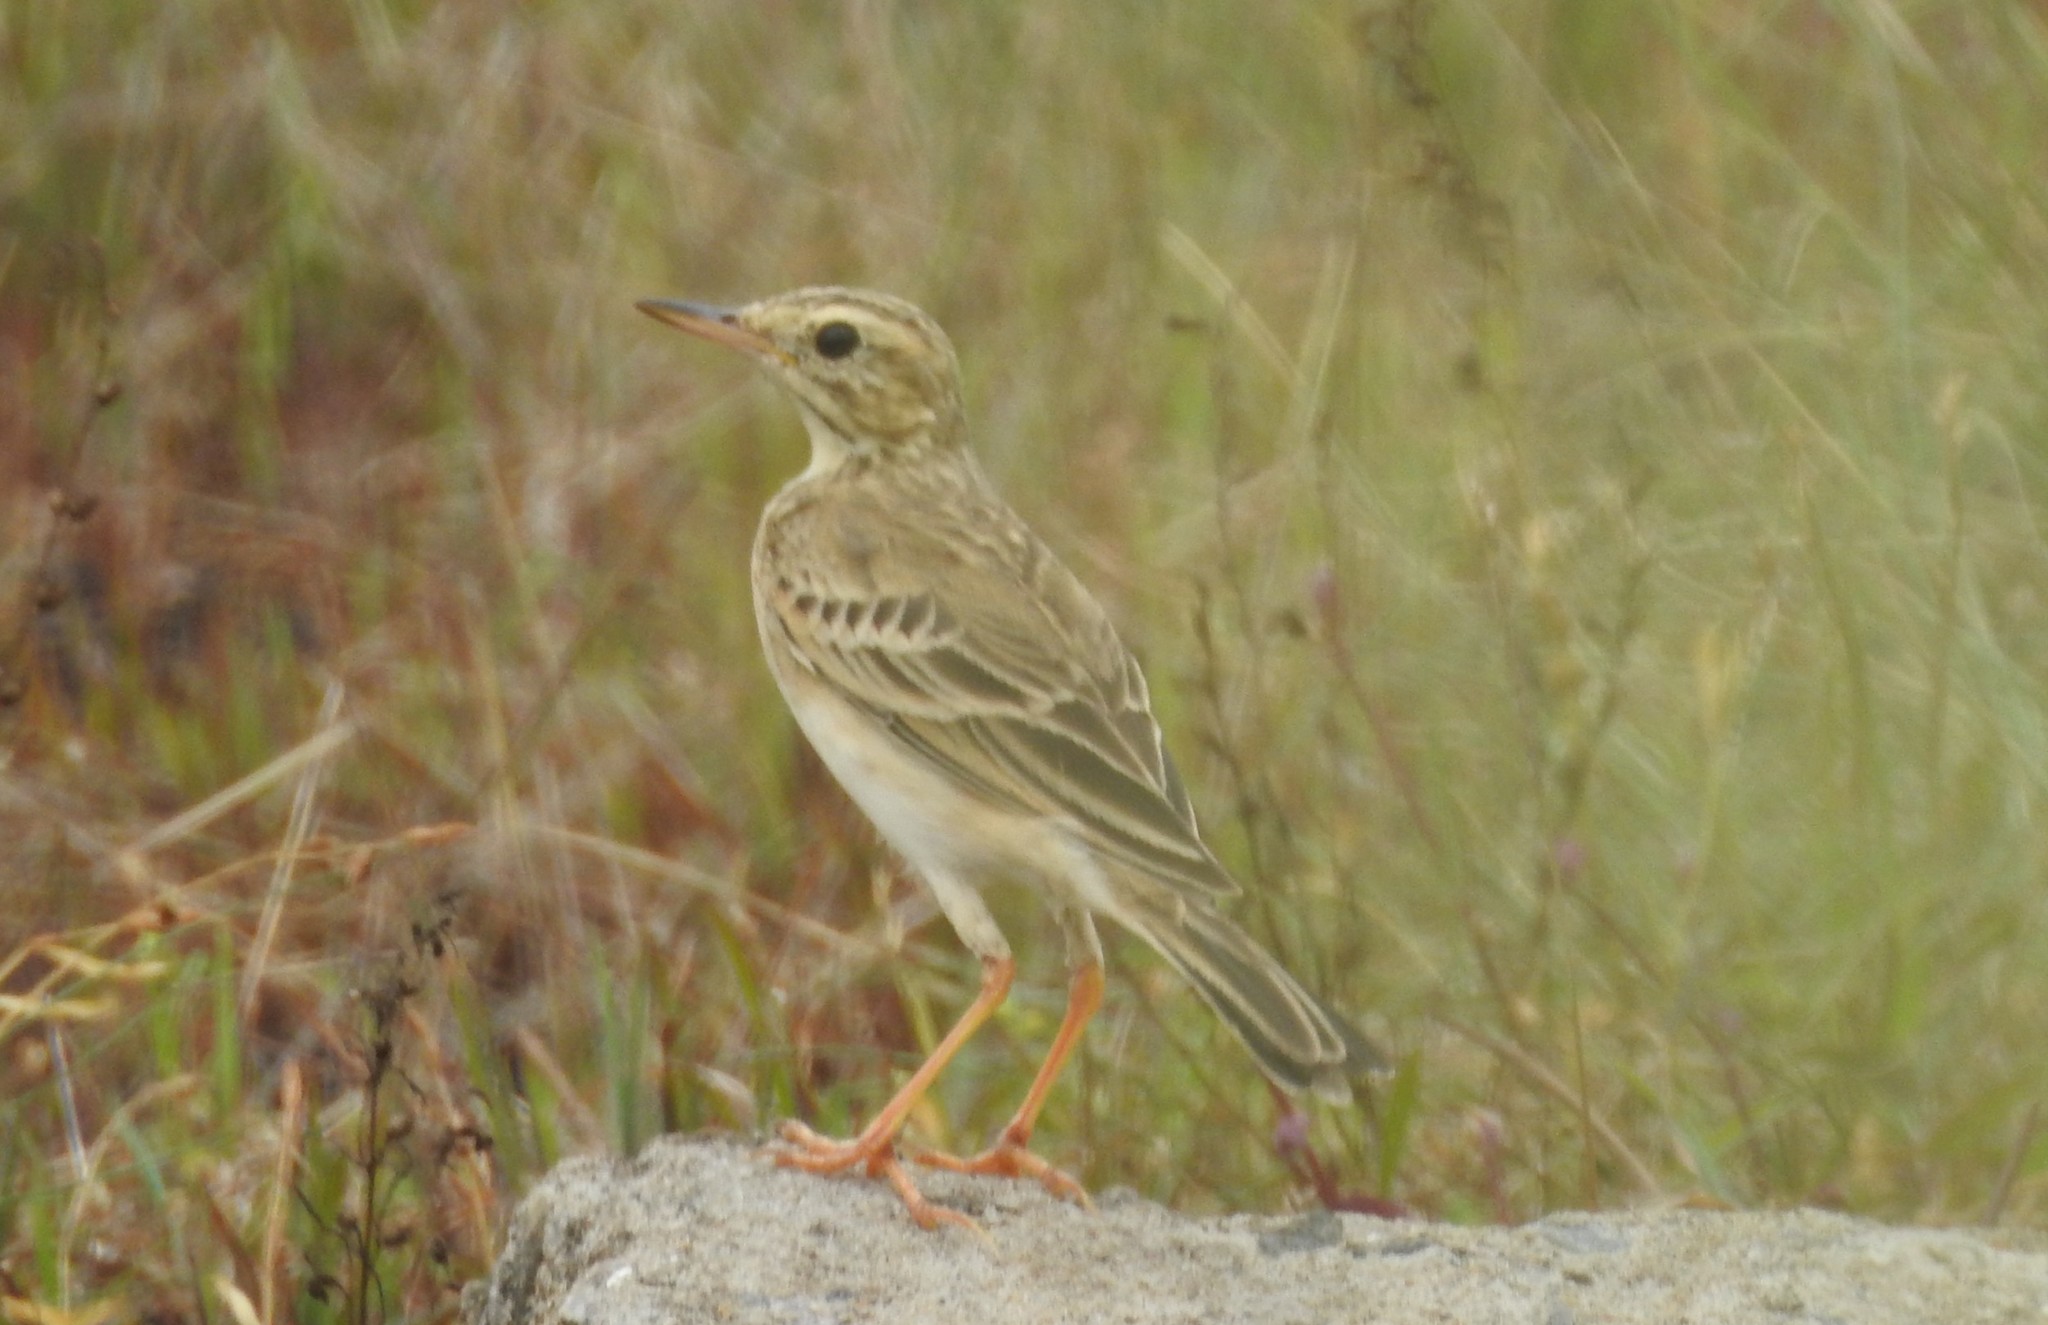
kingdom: Animalia
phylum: Chordata
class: Aves
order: Passeriformes
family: Motacillidae
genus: Anthus
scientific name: Anthus rufulus
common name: Paddyfield pipit
